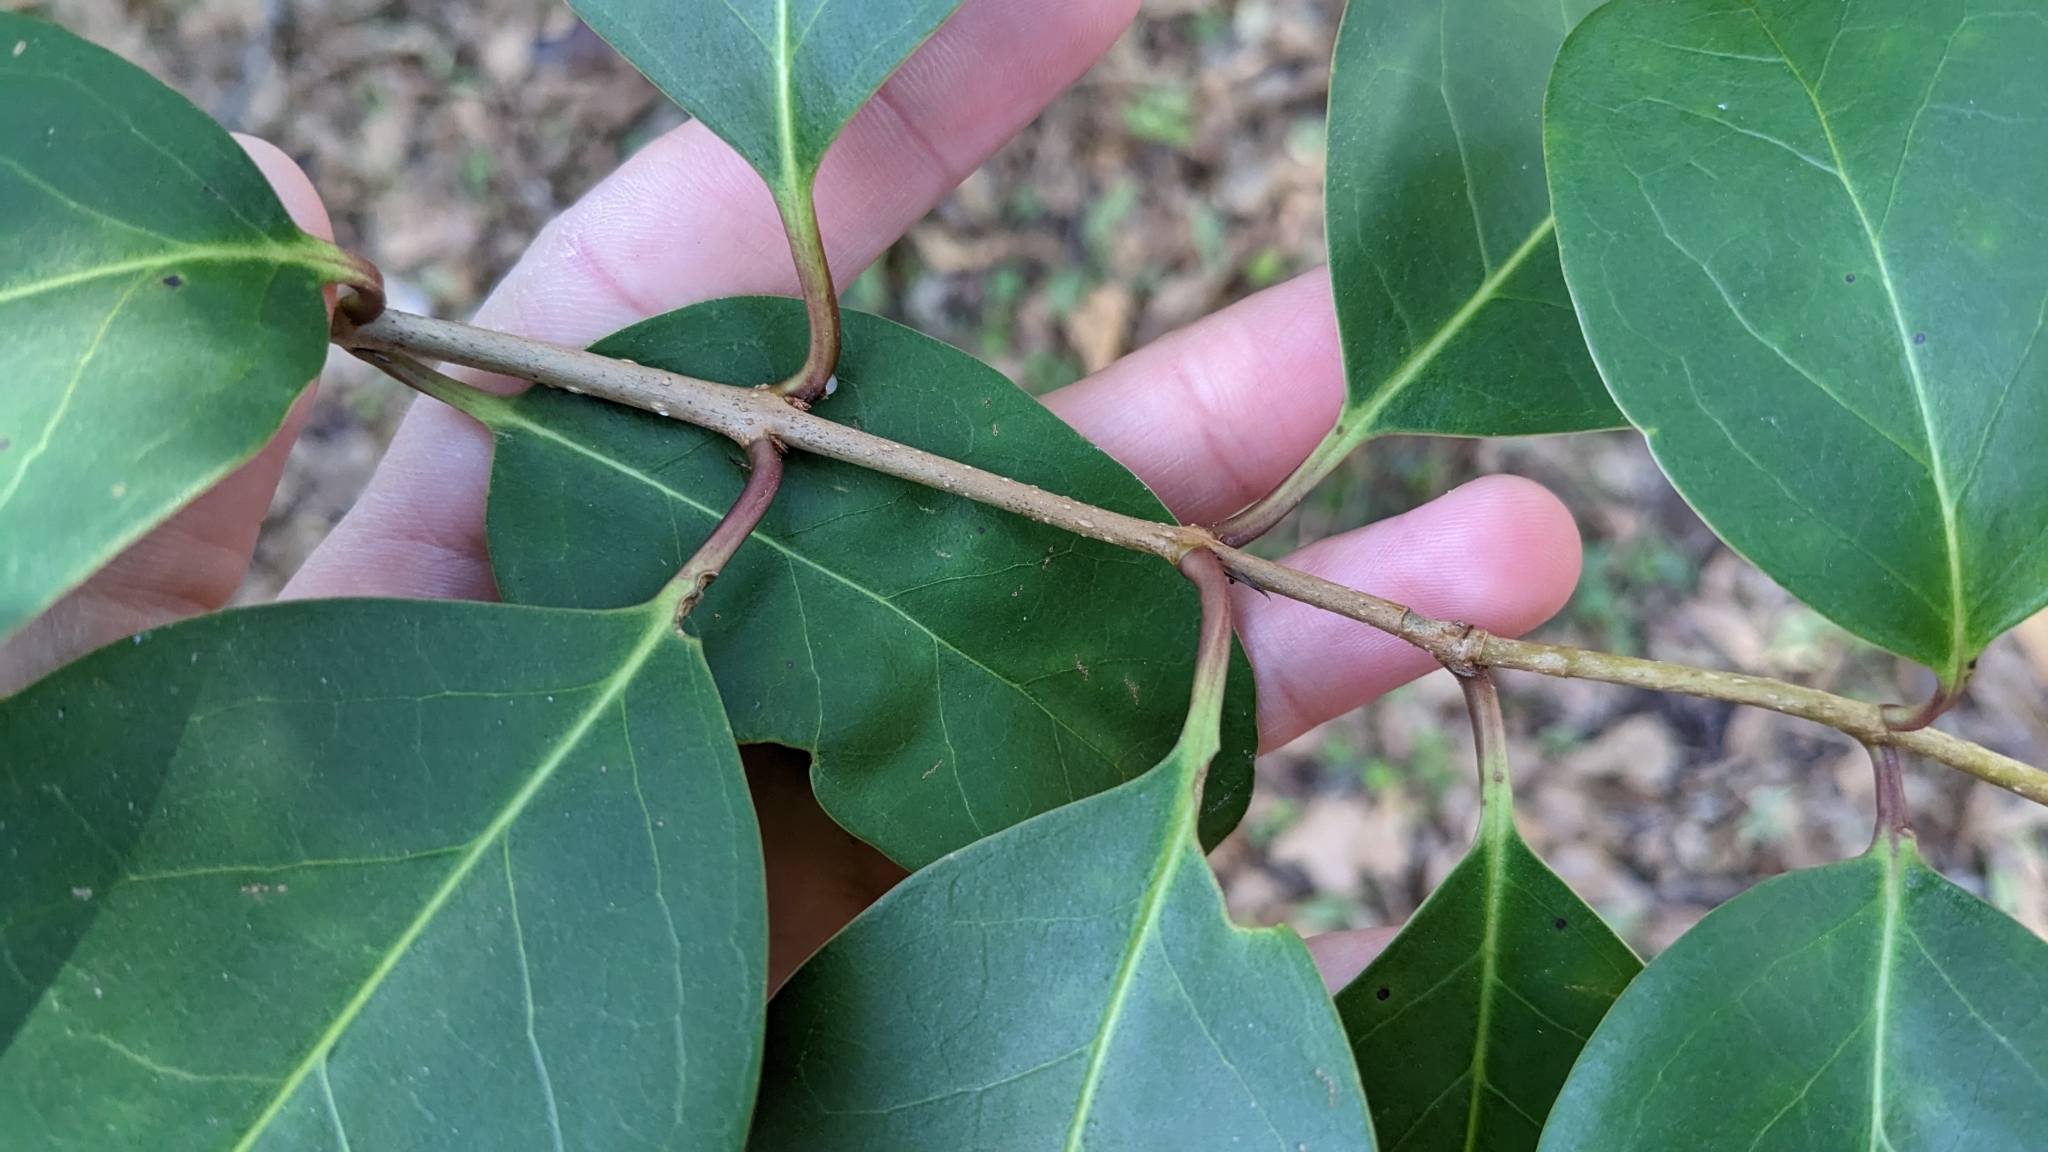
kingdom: Plantae
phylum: Tracheophyta
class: Magnoliopsida
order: Lamiales
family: Oleaceae
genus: Ligustrum
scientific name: Ligustrum lucidum
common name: Glossy privet
